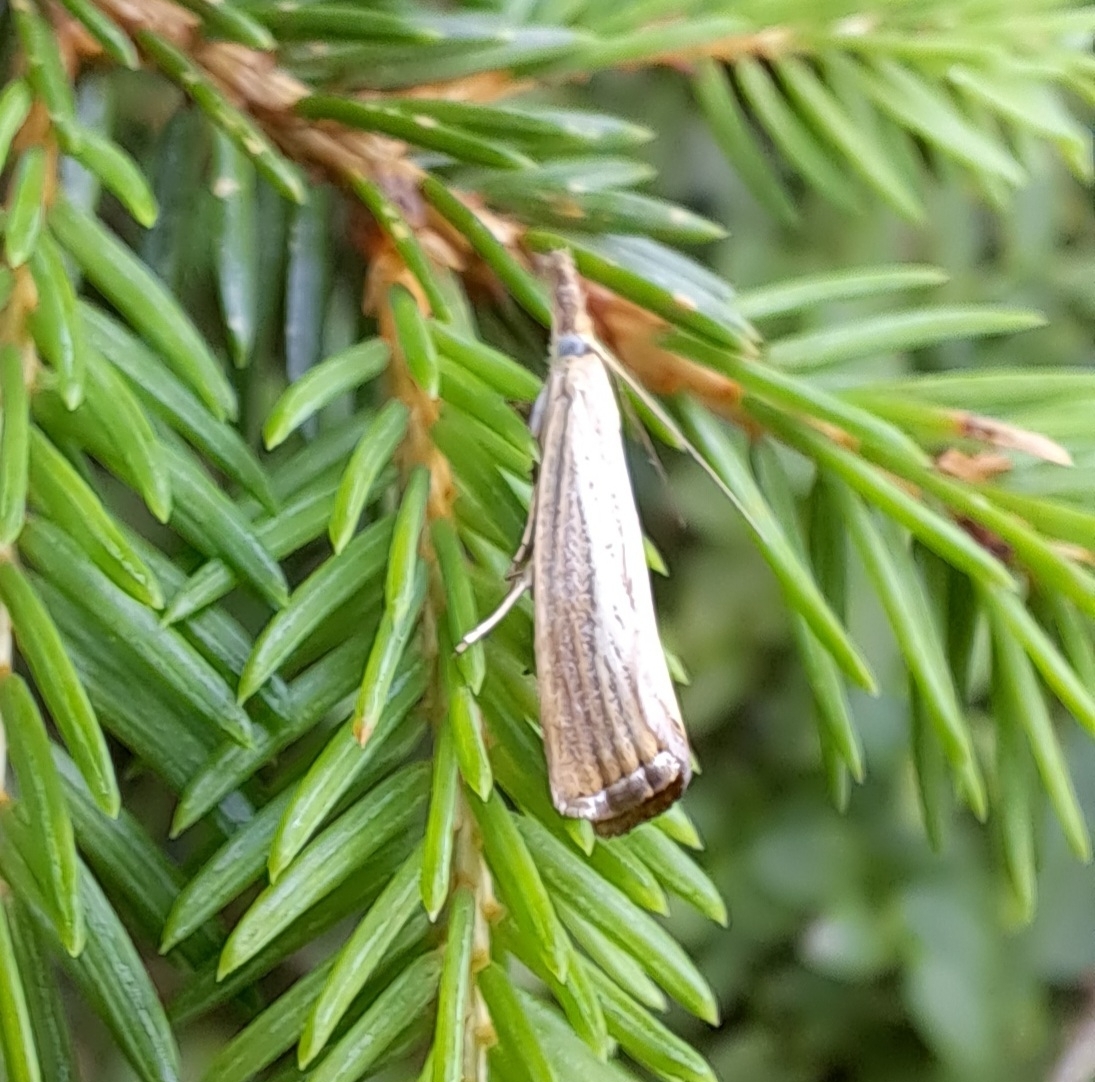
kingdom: Animalia
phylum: Arthropoda
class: Insecta
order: Lepidoptera
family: Crambidae
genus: Agriphila
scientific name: Agriphila straminella
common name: Straw grass-veneer
